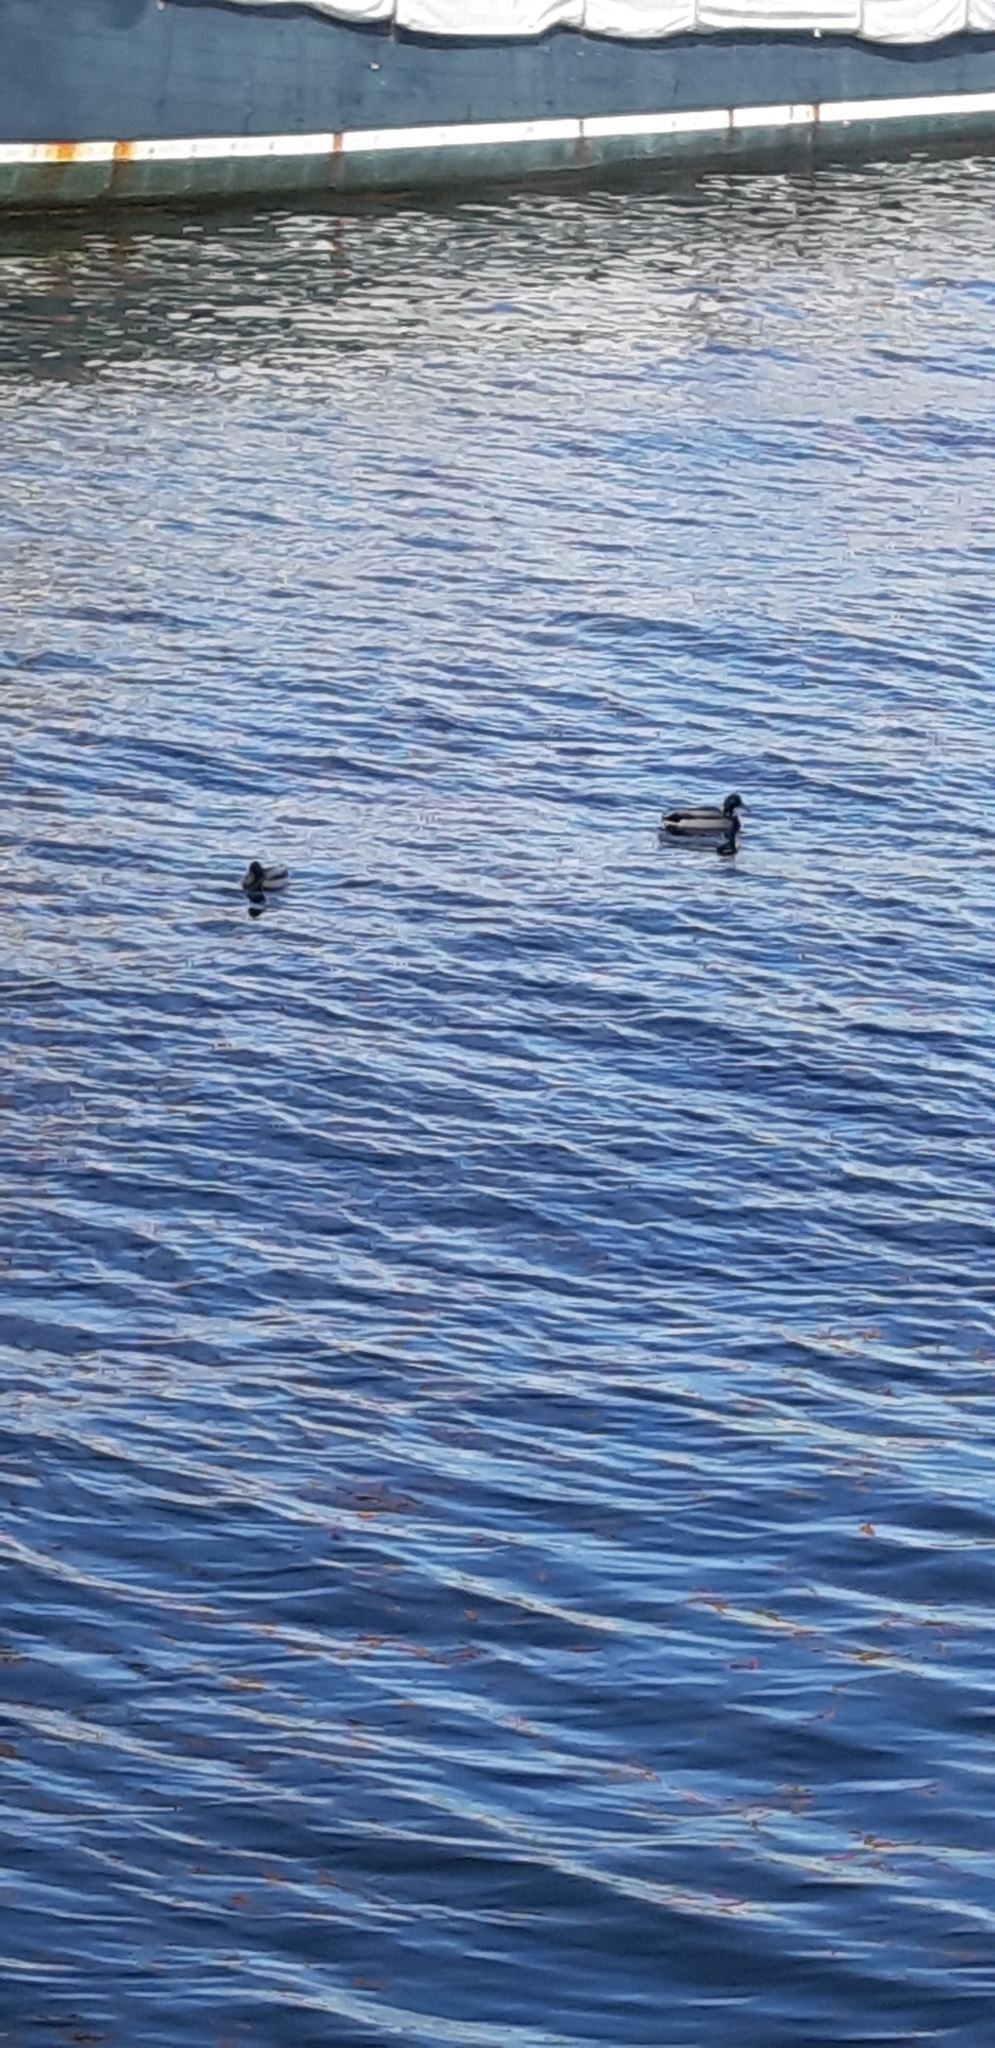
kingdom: Animalia
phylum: Chordata
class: Aves
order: Anseriformes
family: Anatidae
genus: Anas
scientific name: Anas platyrhynchos
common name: Mallard
